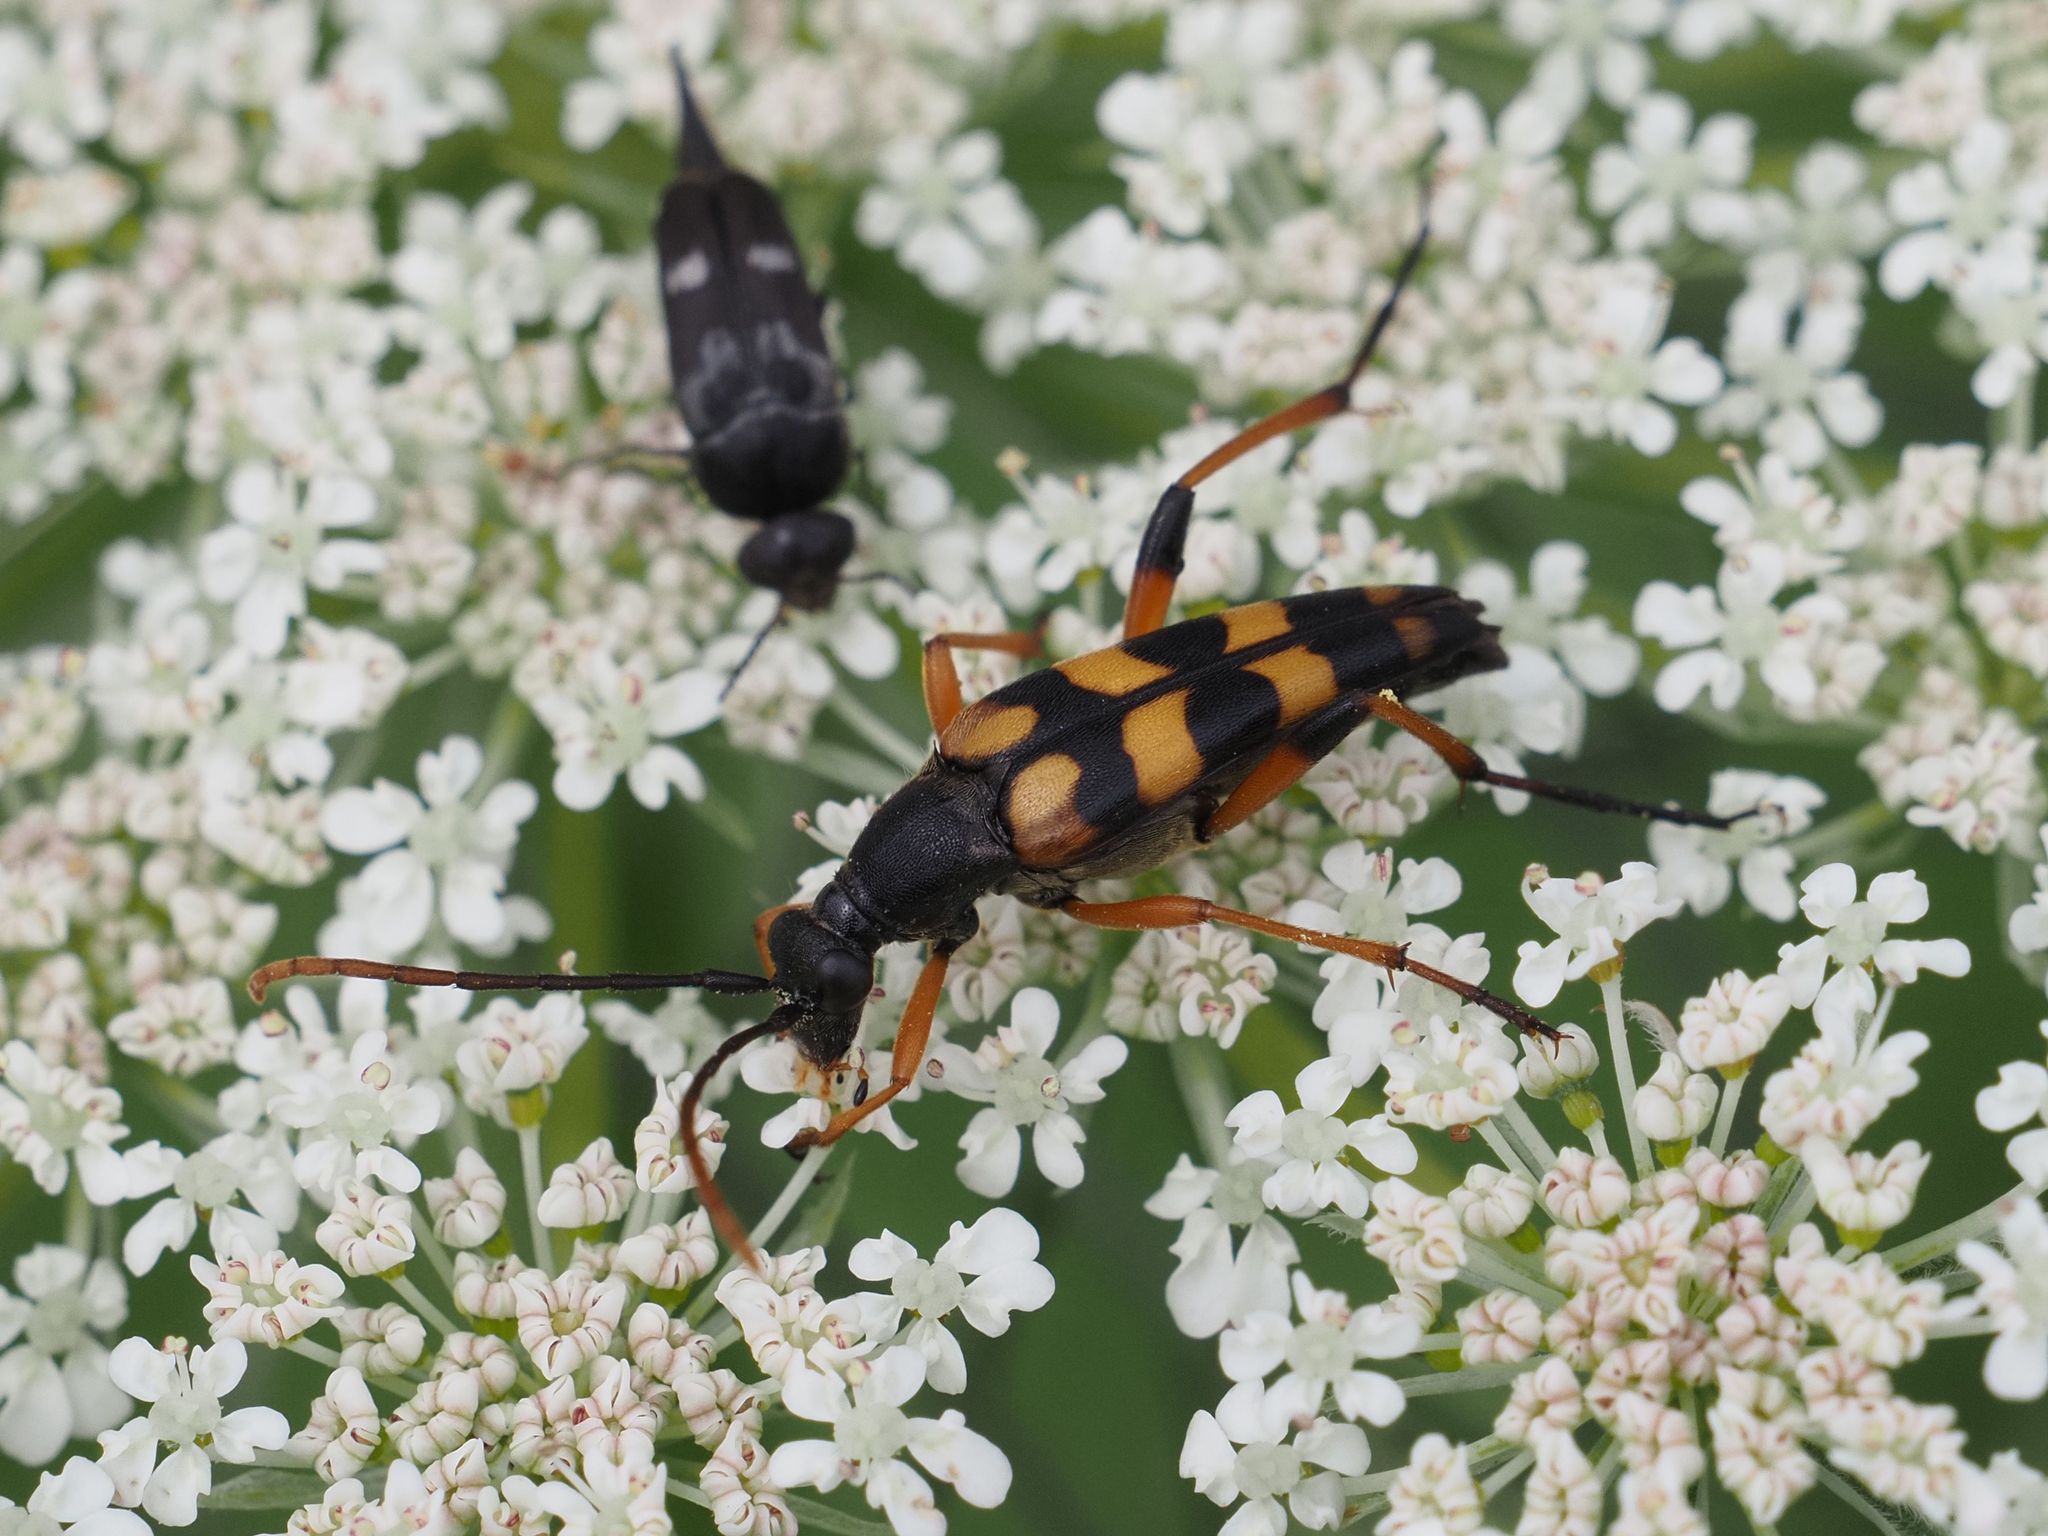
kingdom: Animalia
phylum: Arthropoda
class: Insecta
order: Coleoptera
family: Cerambycidae
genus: Strangalia
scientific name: Strangalia attenuata
